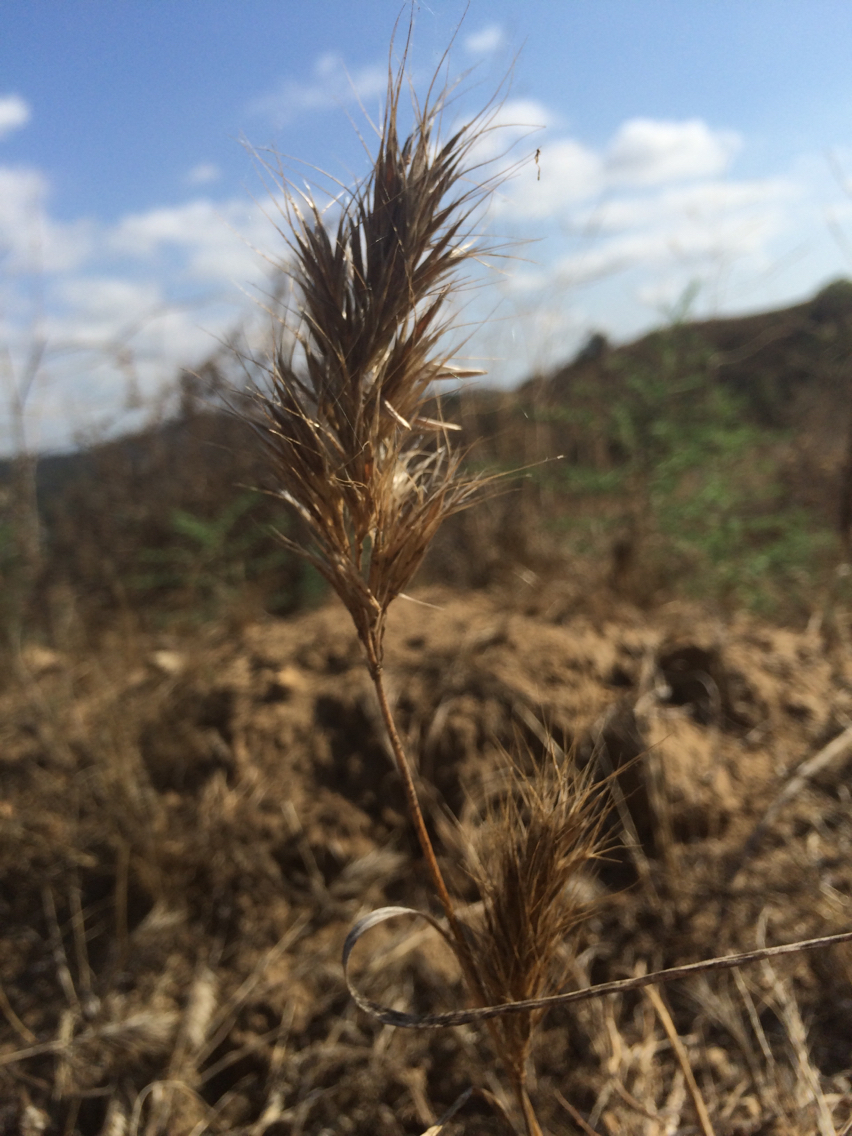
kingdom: Plantae
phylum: Tracheophyta
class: Liliopsida
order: Poales
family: Poaceae
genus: Bromus
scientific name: Bromus madritensis
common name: Compact brome
